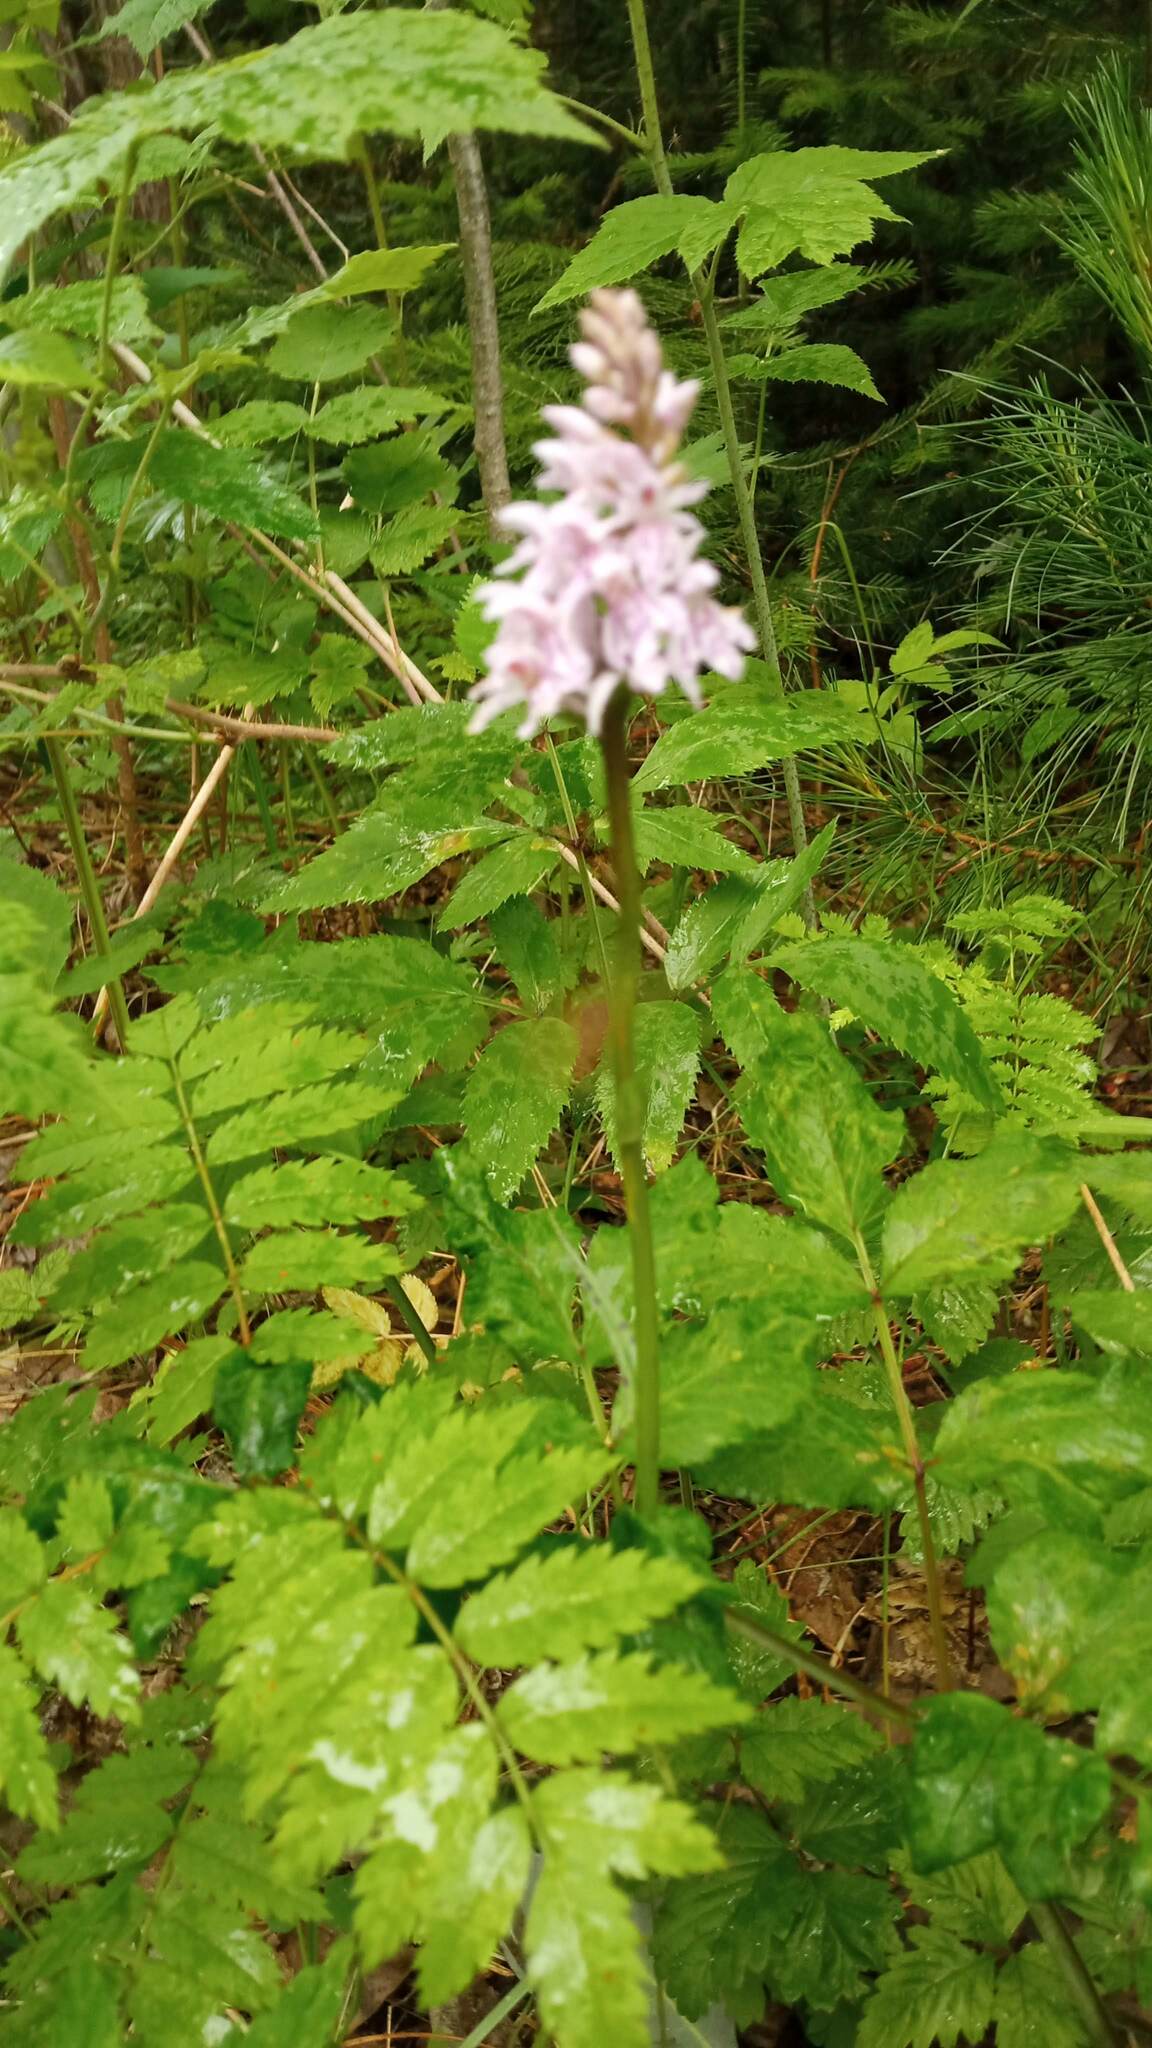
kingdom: Plantae
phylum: Tracheophyta
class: Liliopsida
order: Asparagales
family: Orchidaceae
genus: Dactylorhiza
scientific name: Dactylorhiza maculata
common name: Heath spotted-orchid
